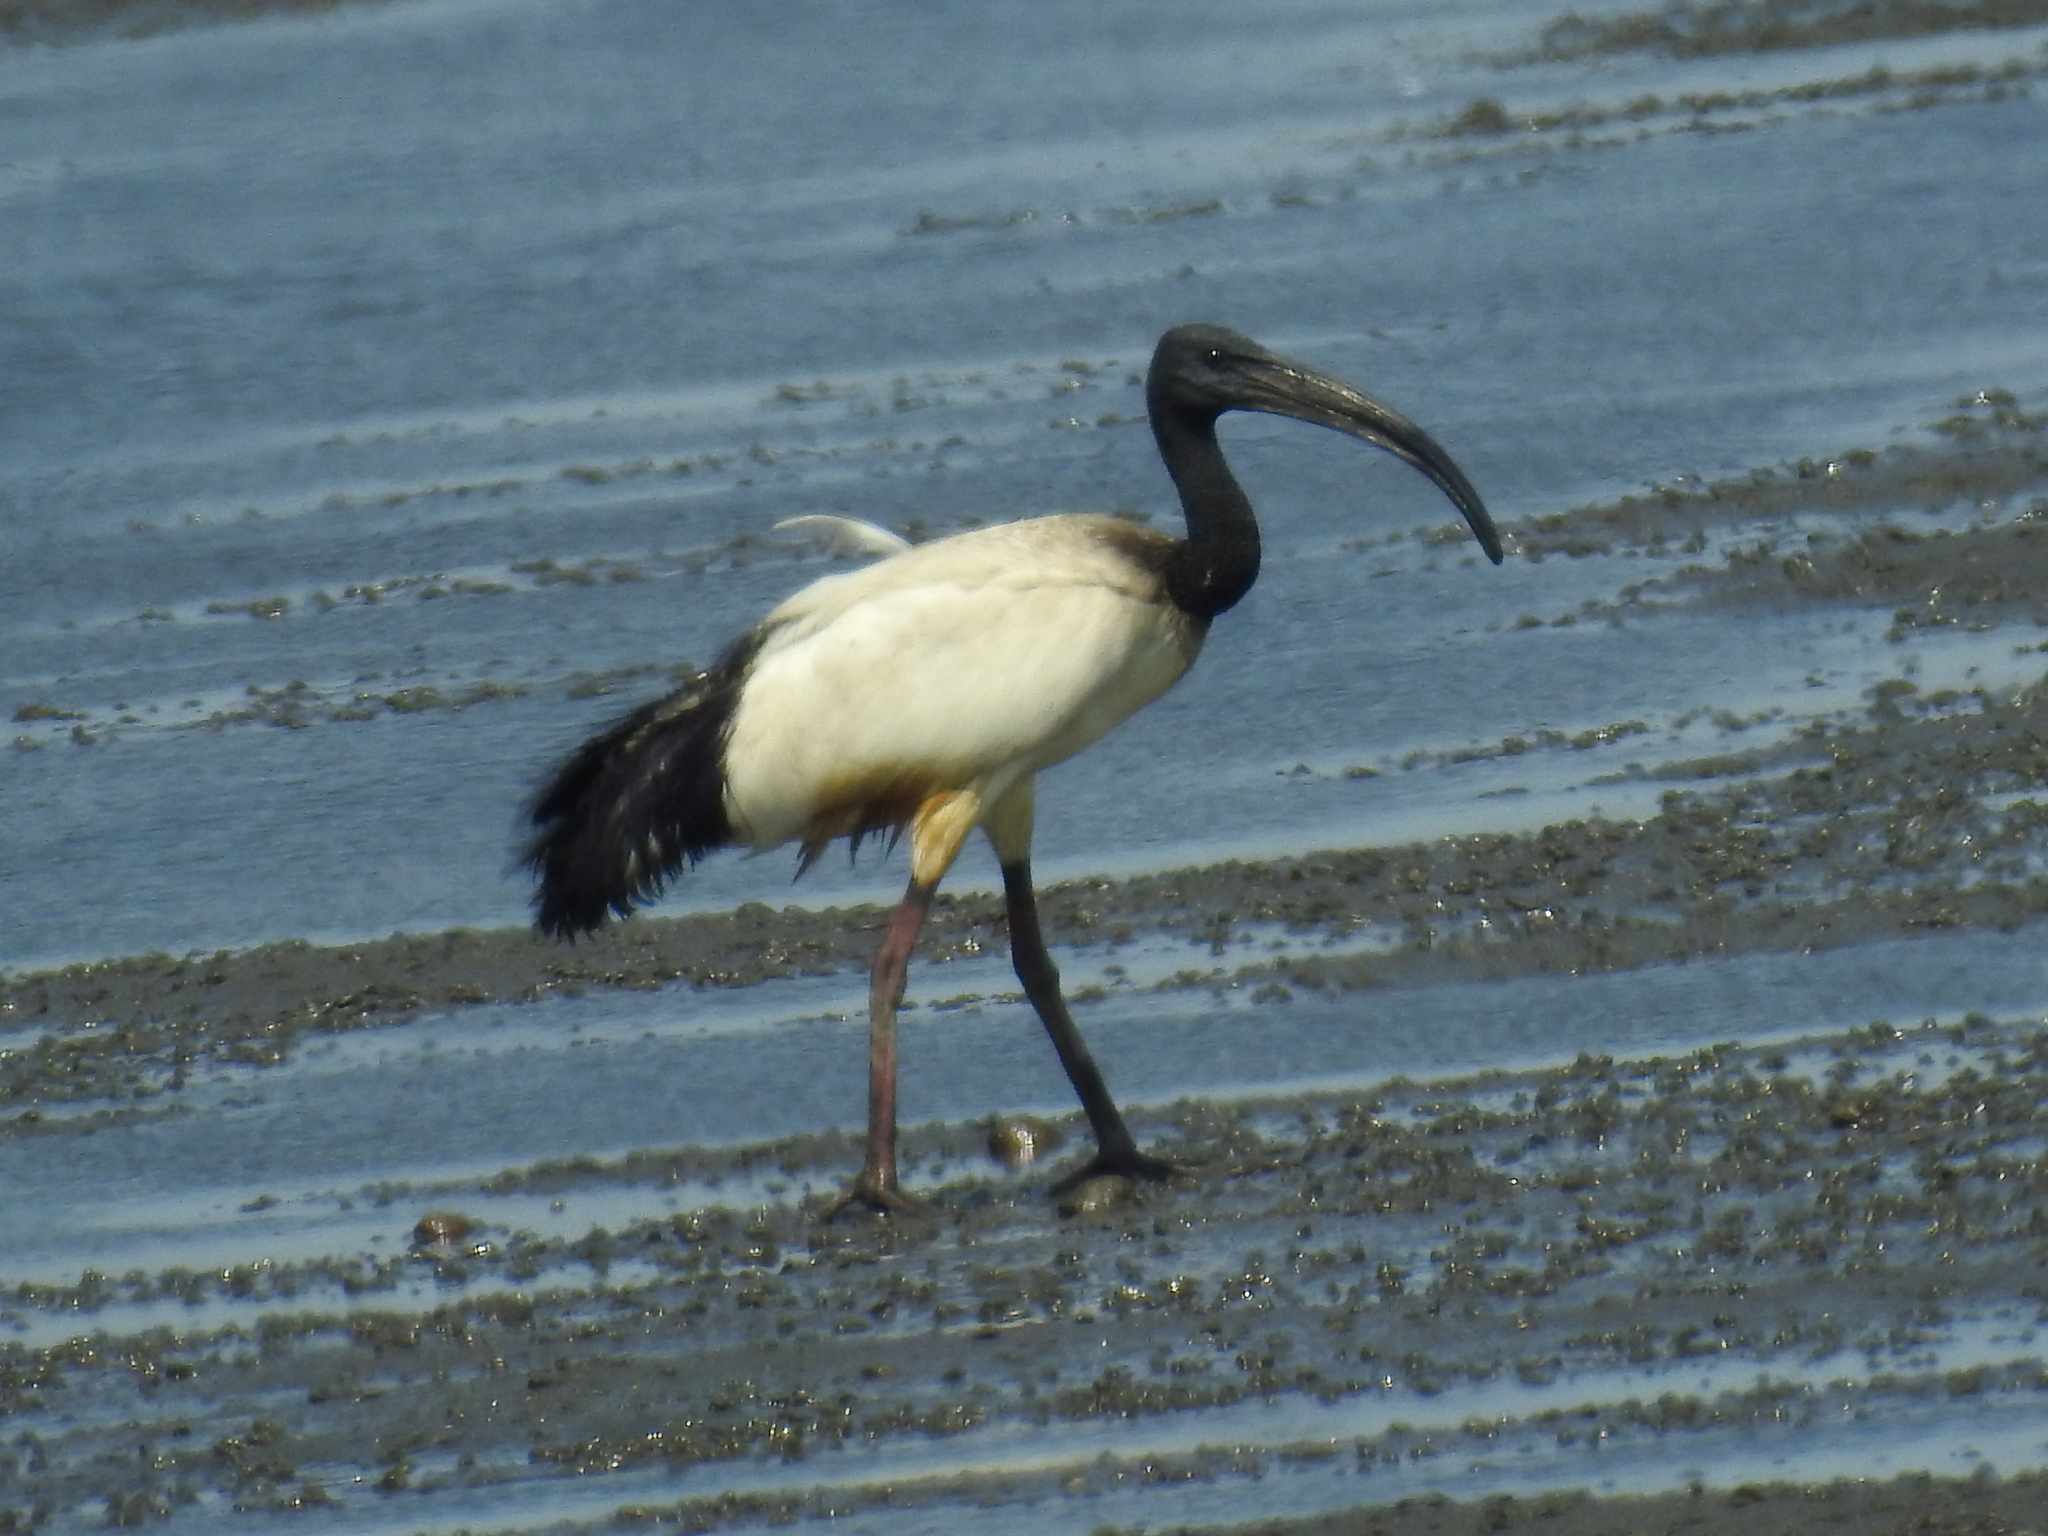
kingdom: Animalia
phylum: Chordata
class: Aves
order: Pelecaniformes
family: Threskiornithidae
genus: Threskiornis
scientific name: Threskiornis aethiopicus
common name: Sacred ibis
